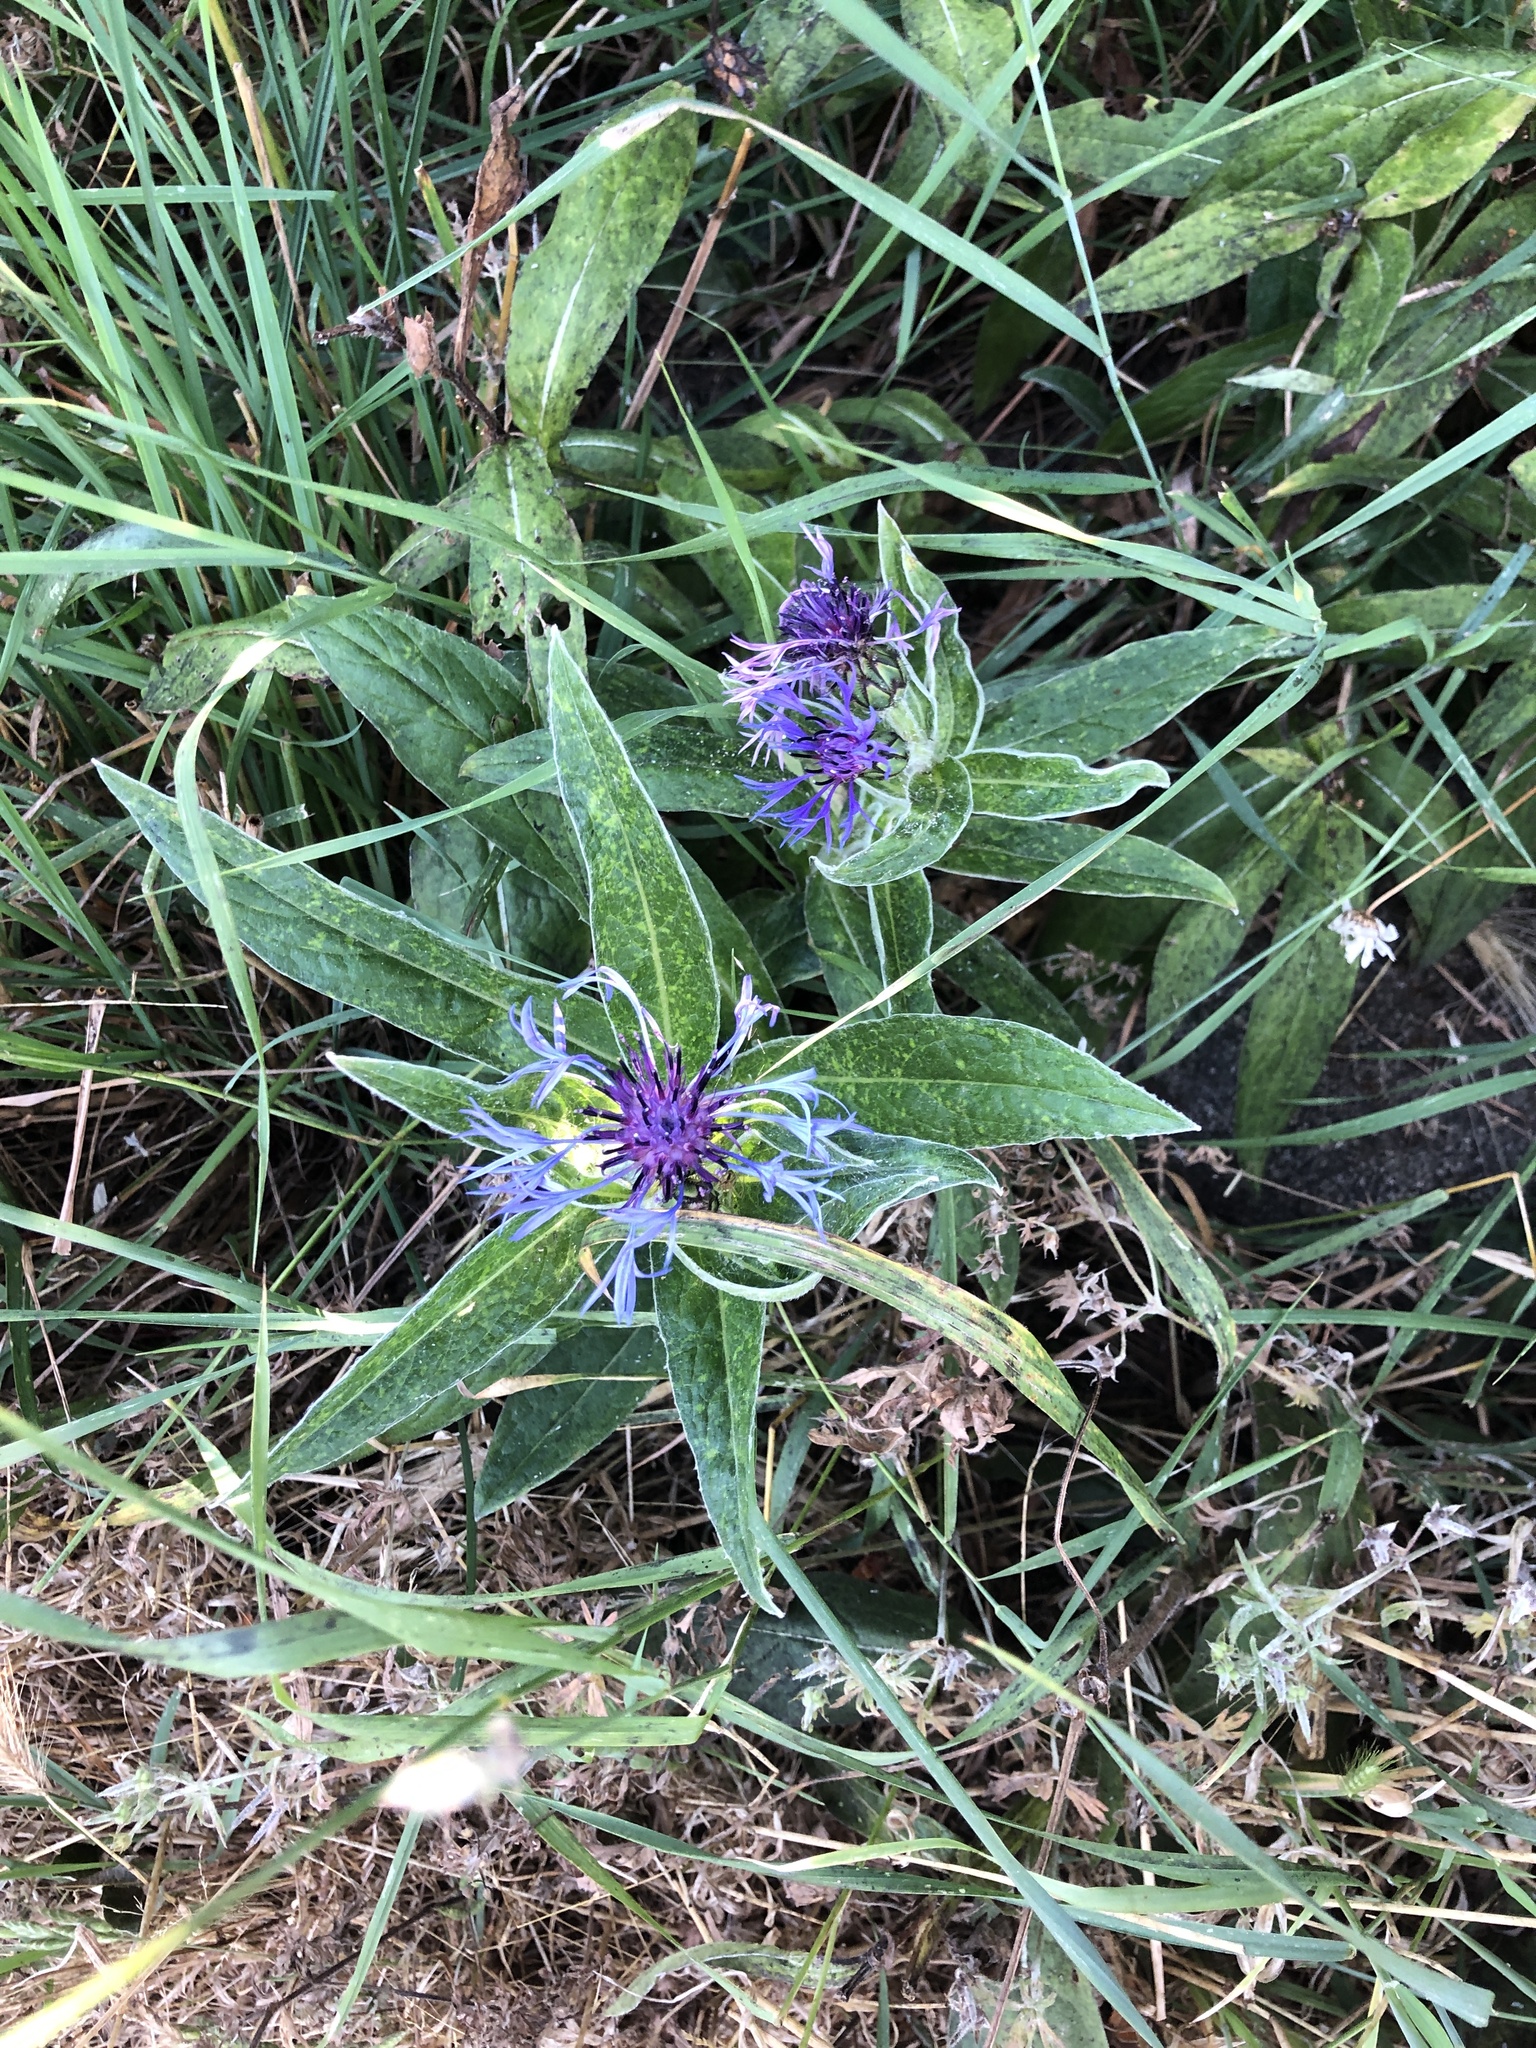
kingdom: Plantae
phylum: Tracheophyta
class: Magnoliopsida
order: Asterales
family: Asteraceae
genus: Centaurea
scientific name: Centaurea montana
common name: Perennial cornflower
